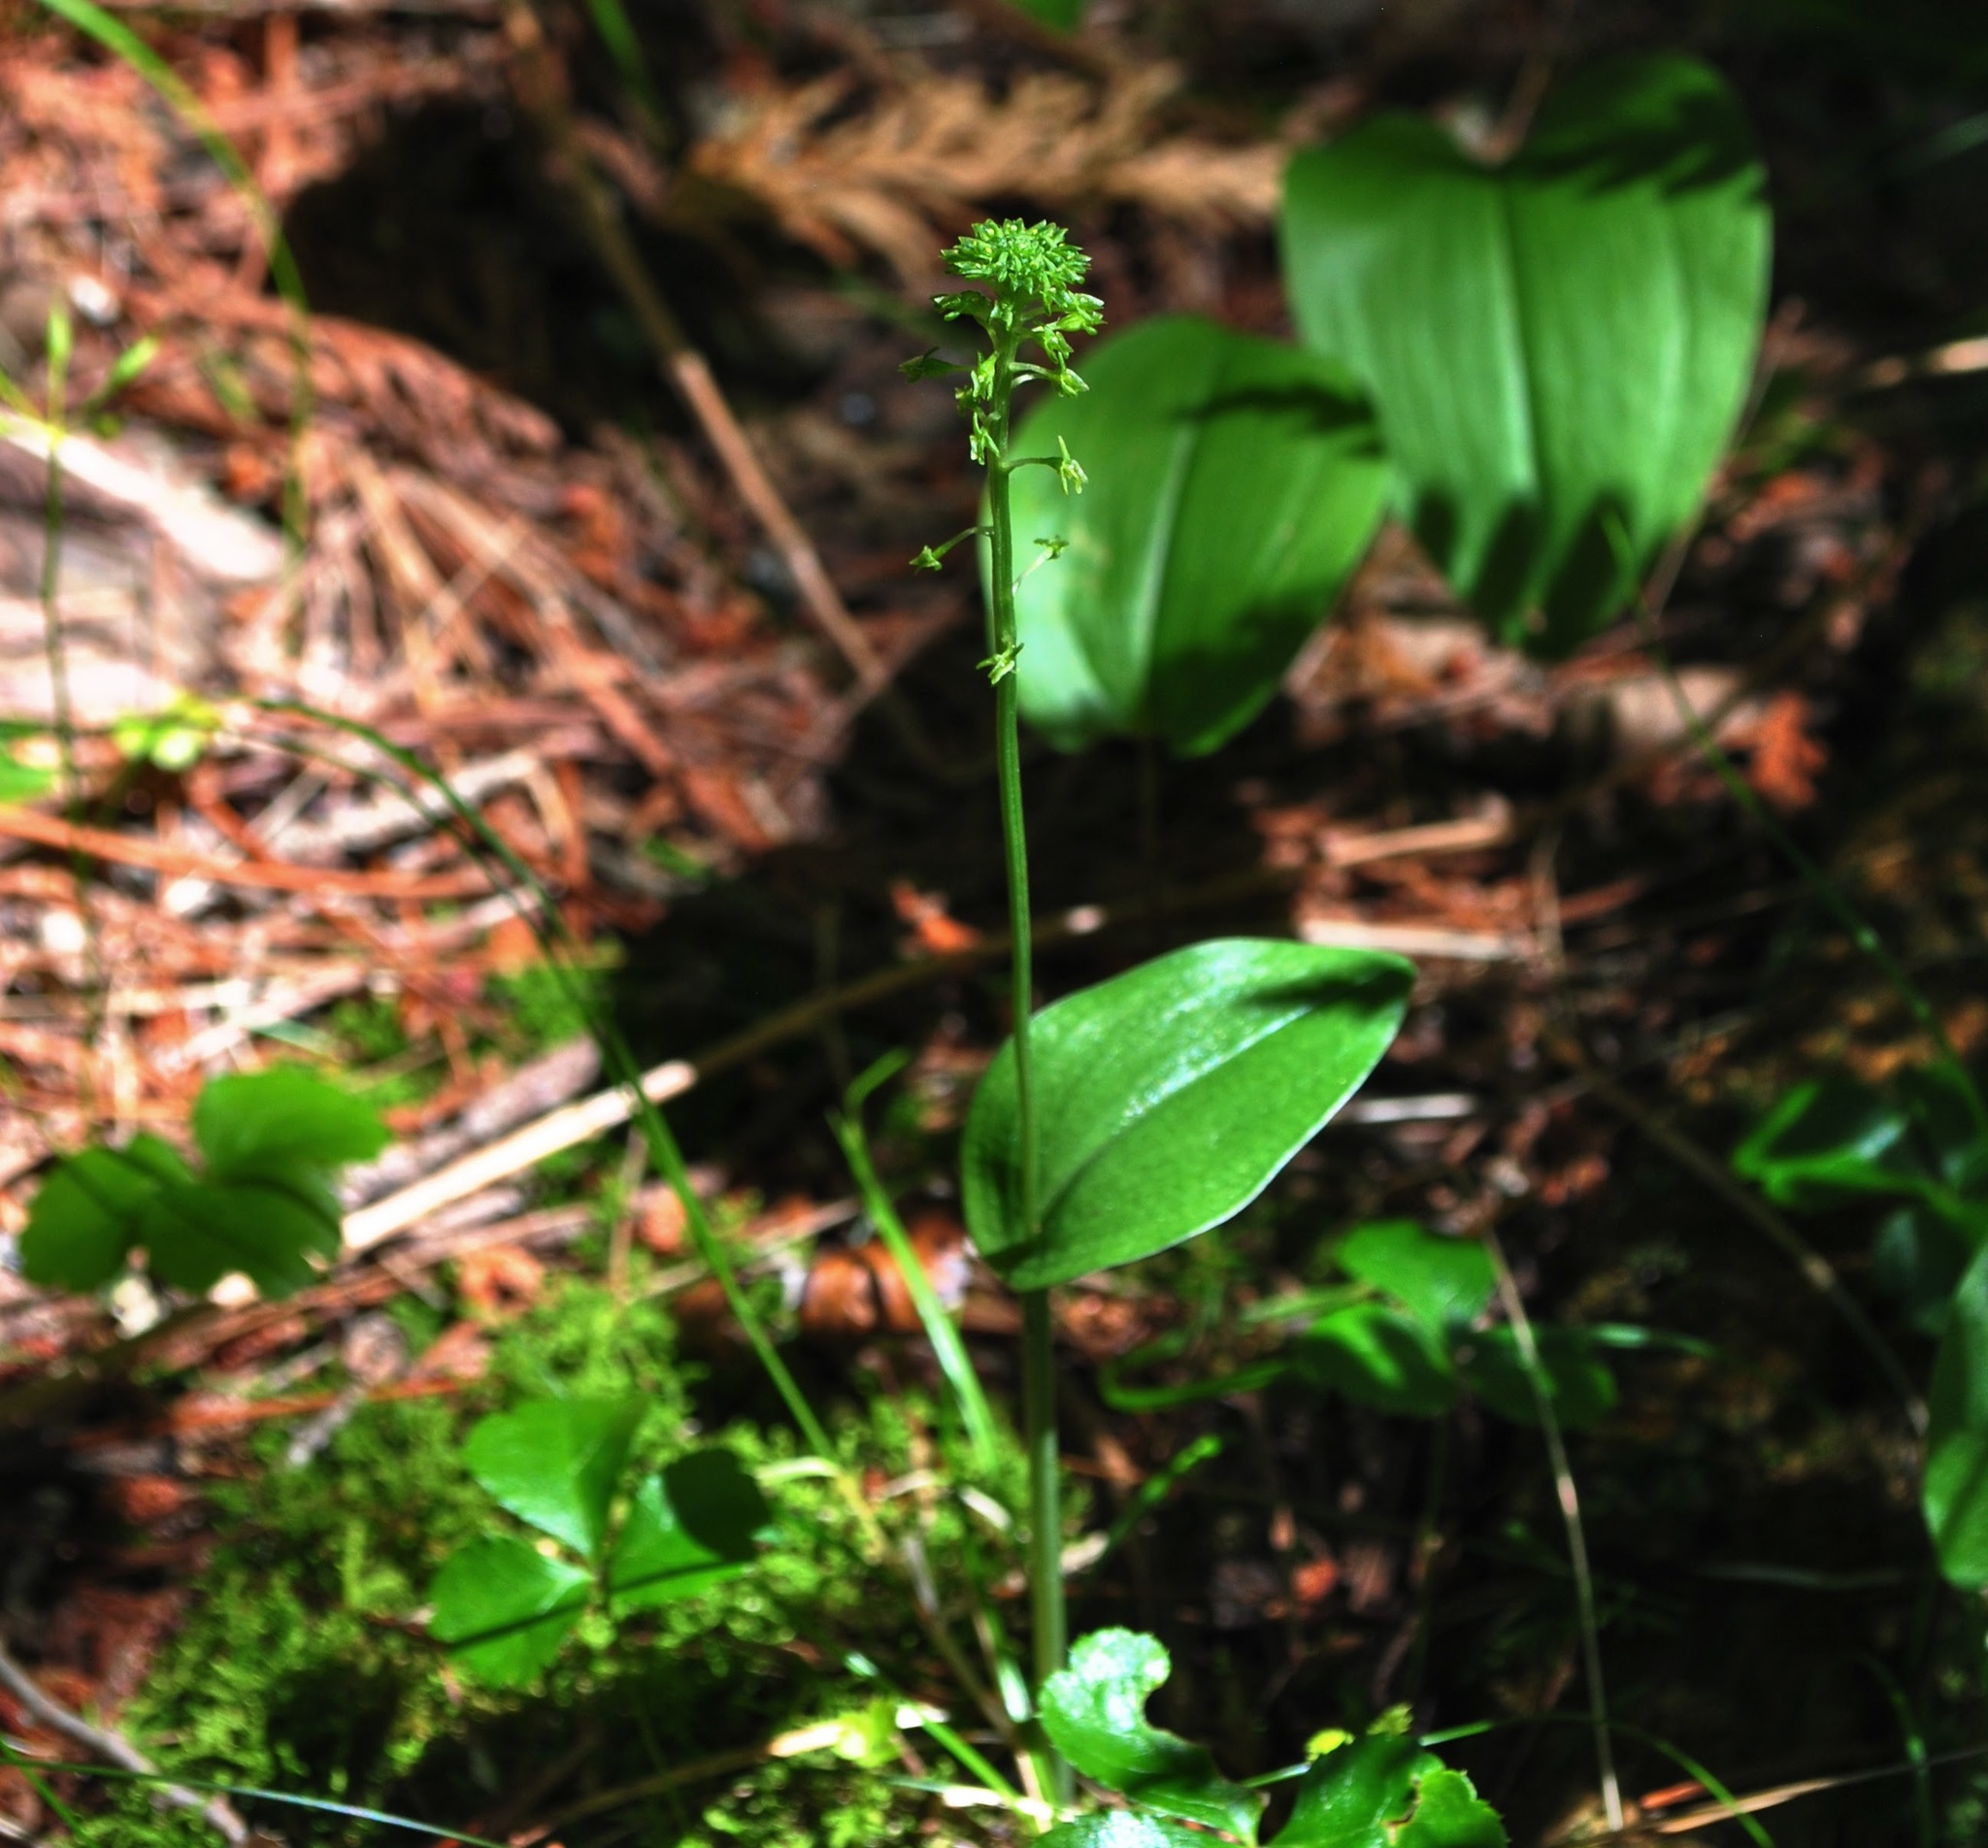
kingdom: Plantae
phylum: Tracheophyta
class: Liliopsida
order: Asparagales
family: Orchidaceae
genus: Malaxis
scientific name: Malaxis unifolia
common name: Green adder's-mouth
